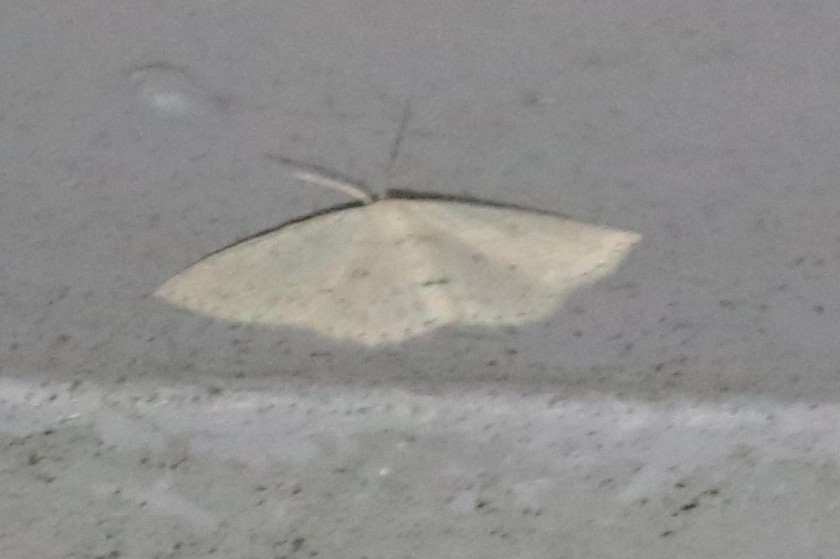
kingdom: Animalia
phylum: Arthropoda
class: Insecta
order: Lepidoptera
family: Geometridae
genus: Cyclophora
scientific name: Cyclophora pendulinaria
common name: Sweet fern geometer
